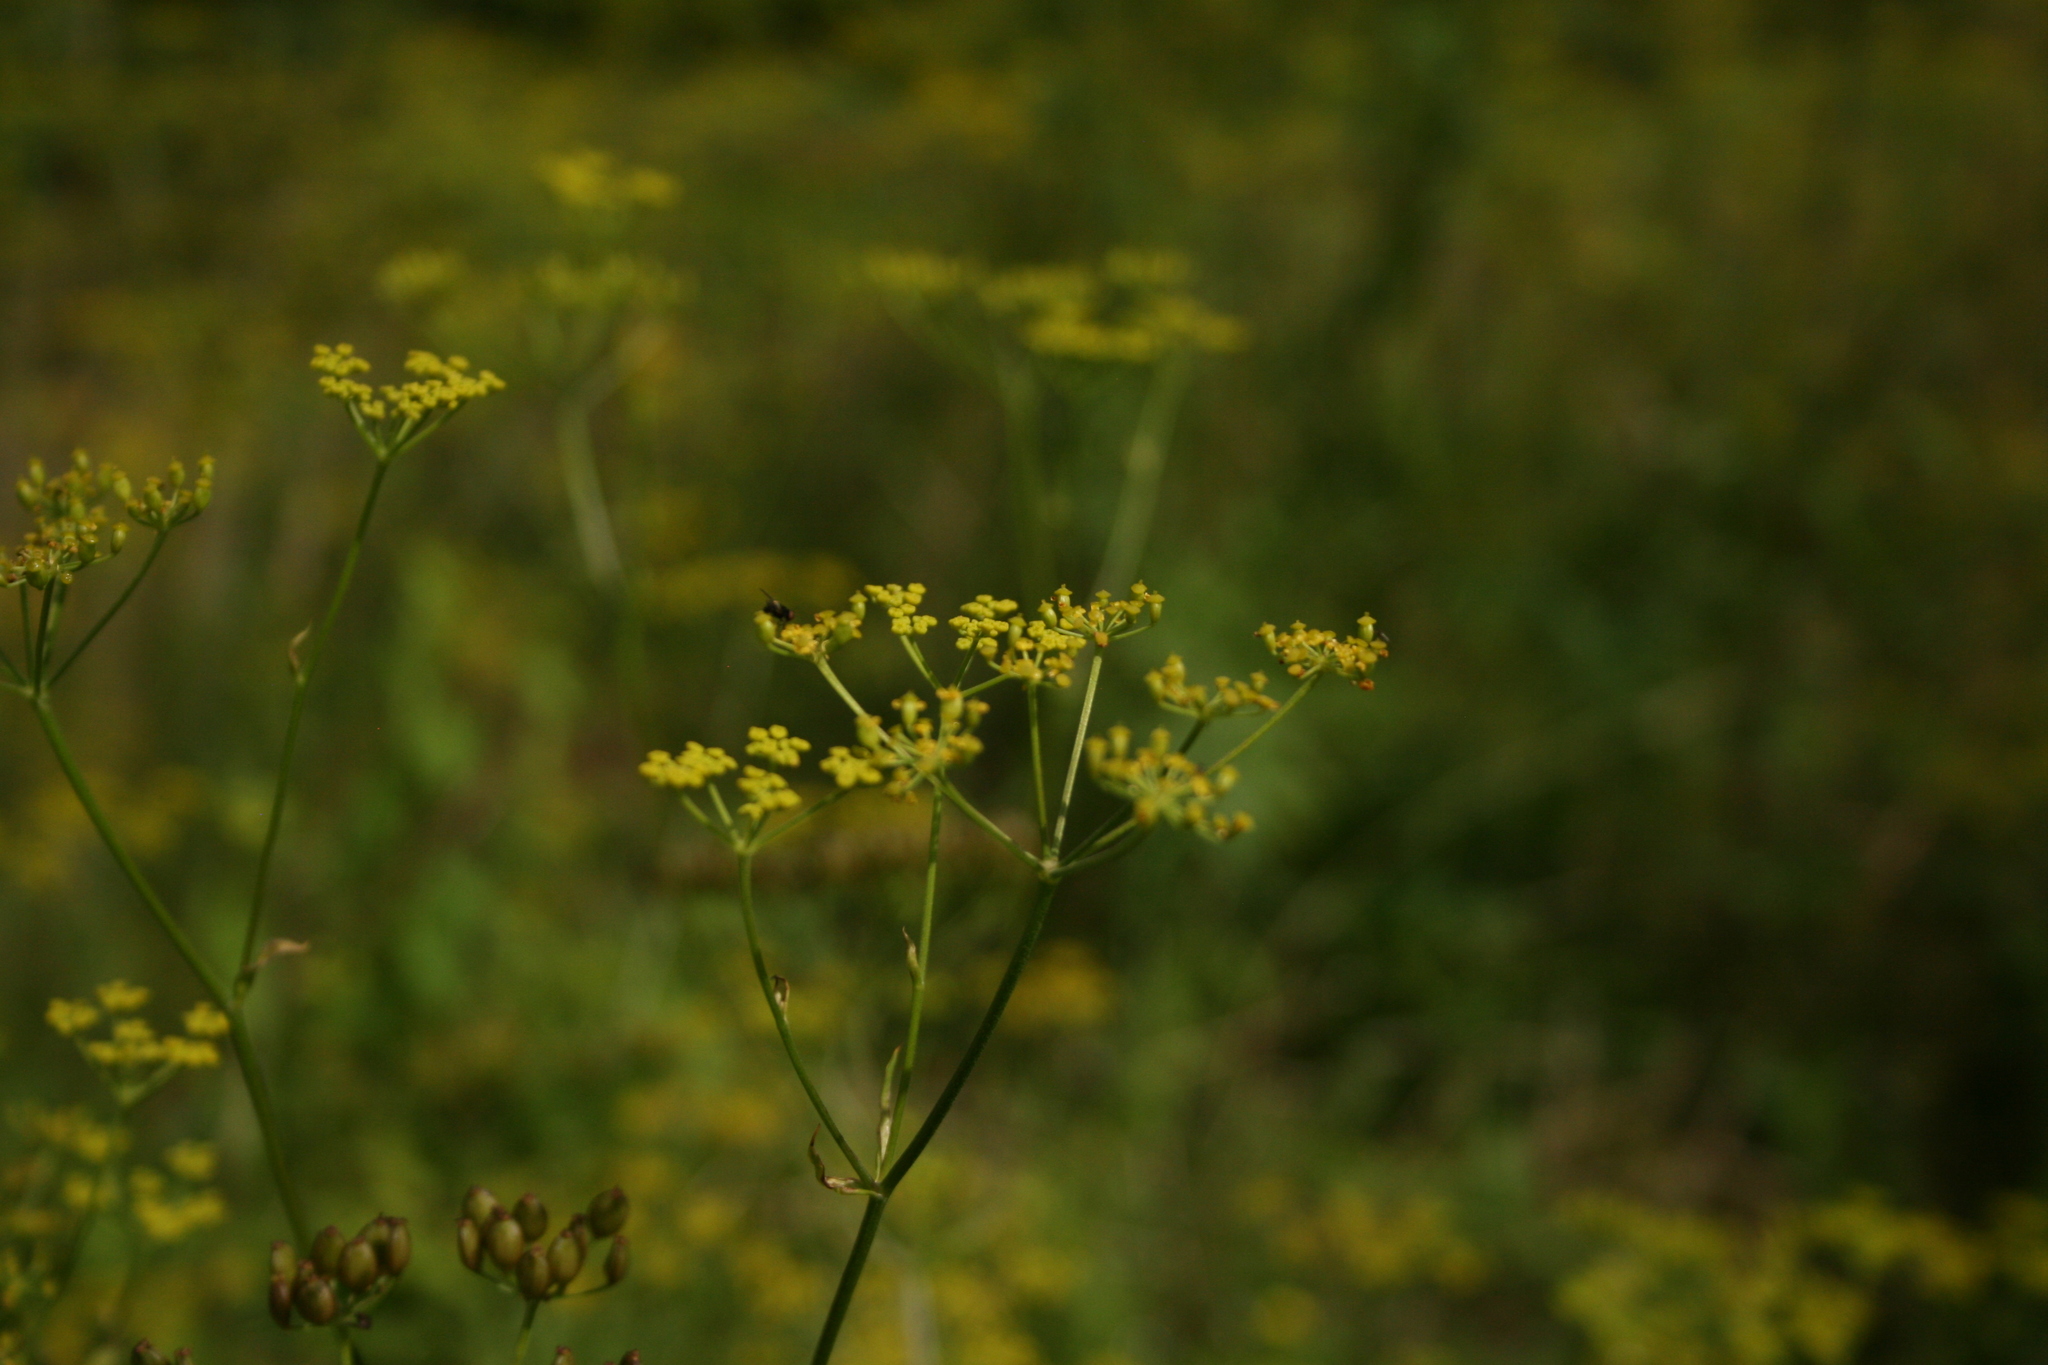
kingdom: Plantae
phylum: Tracheophyta
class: Magnoliopsida
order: Apiales
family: Apiaceae
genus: Pastinaca
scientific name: Pastinaca sativa
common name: Wild parsnip
